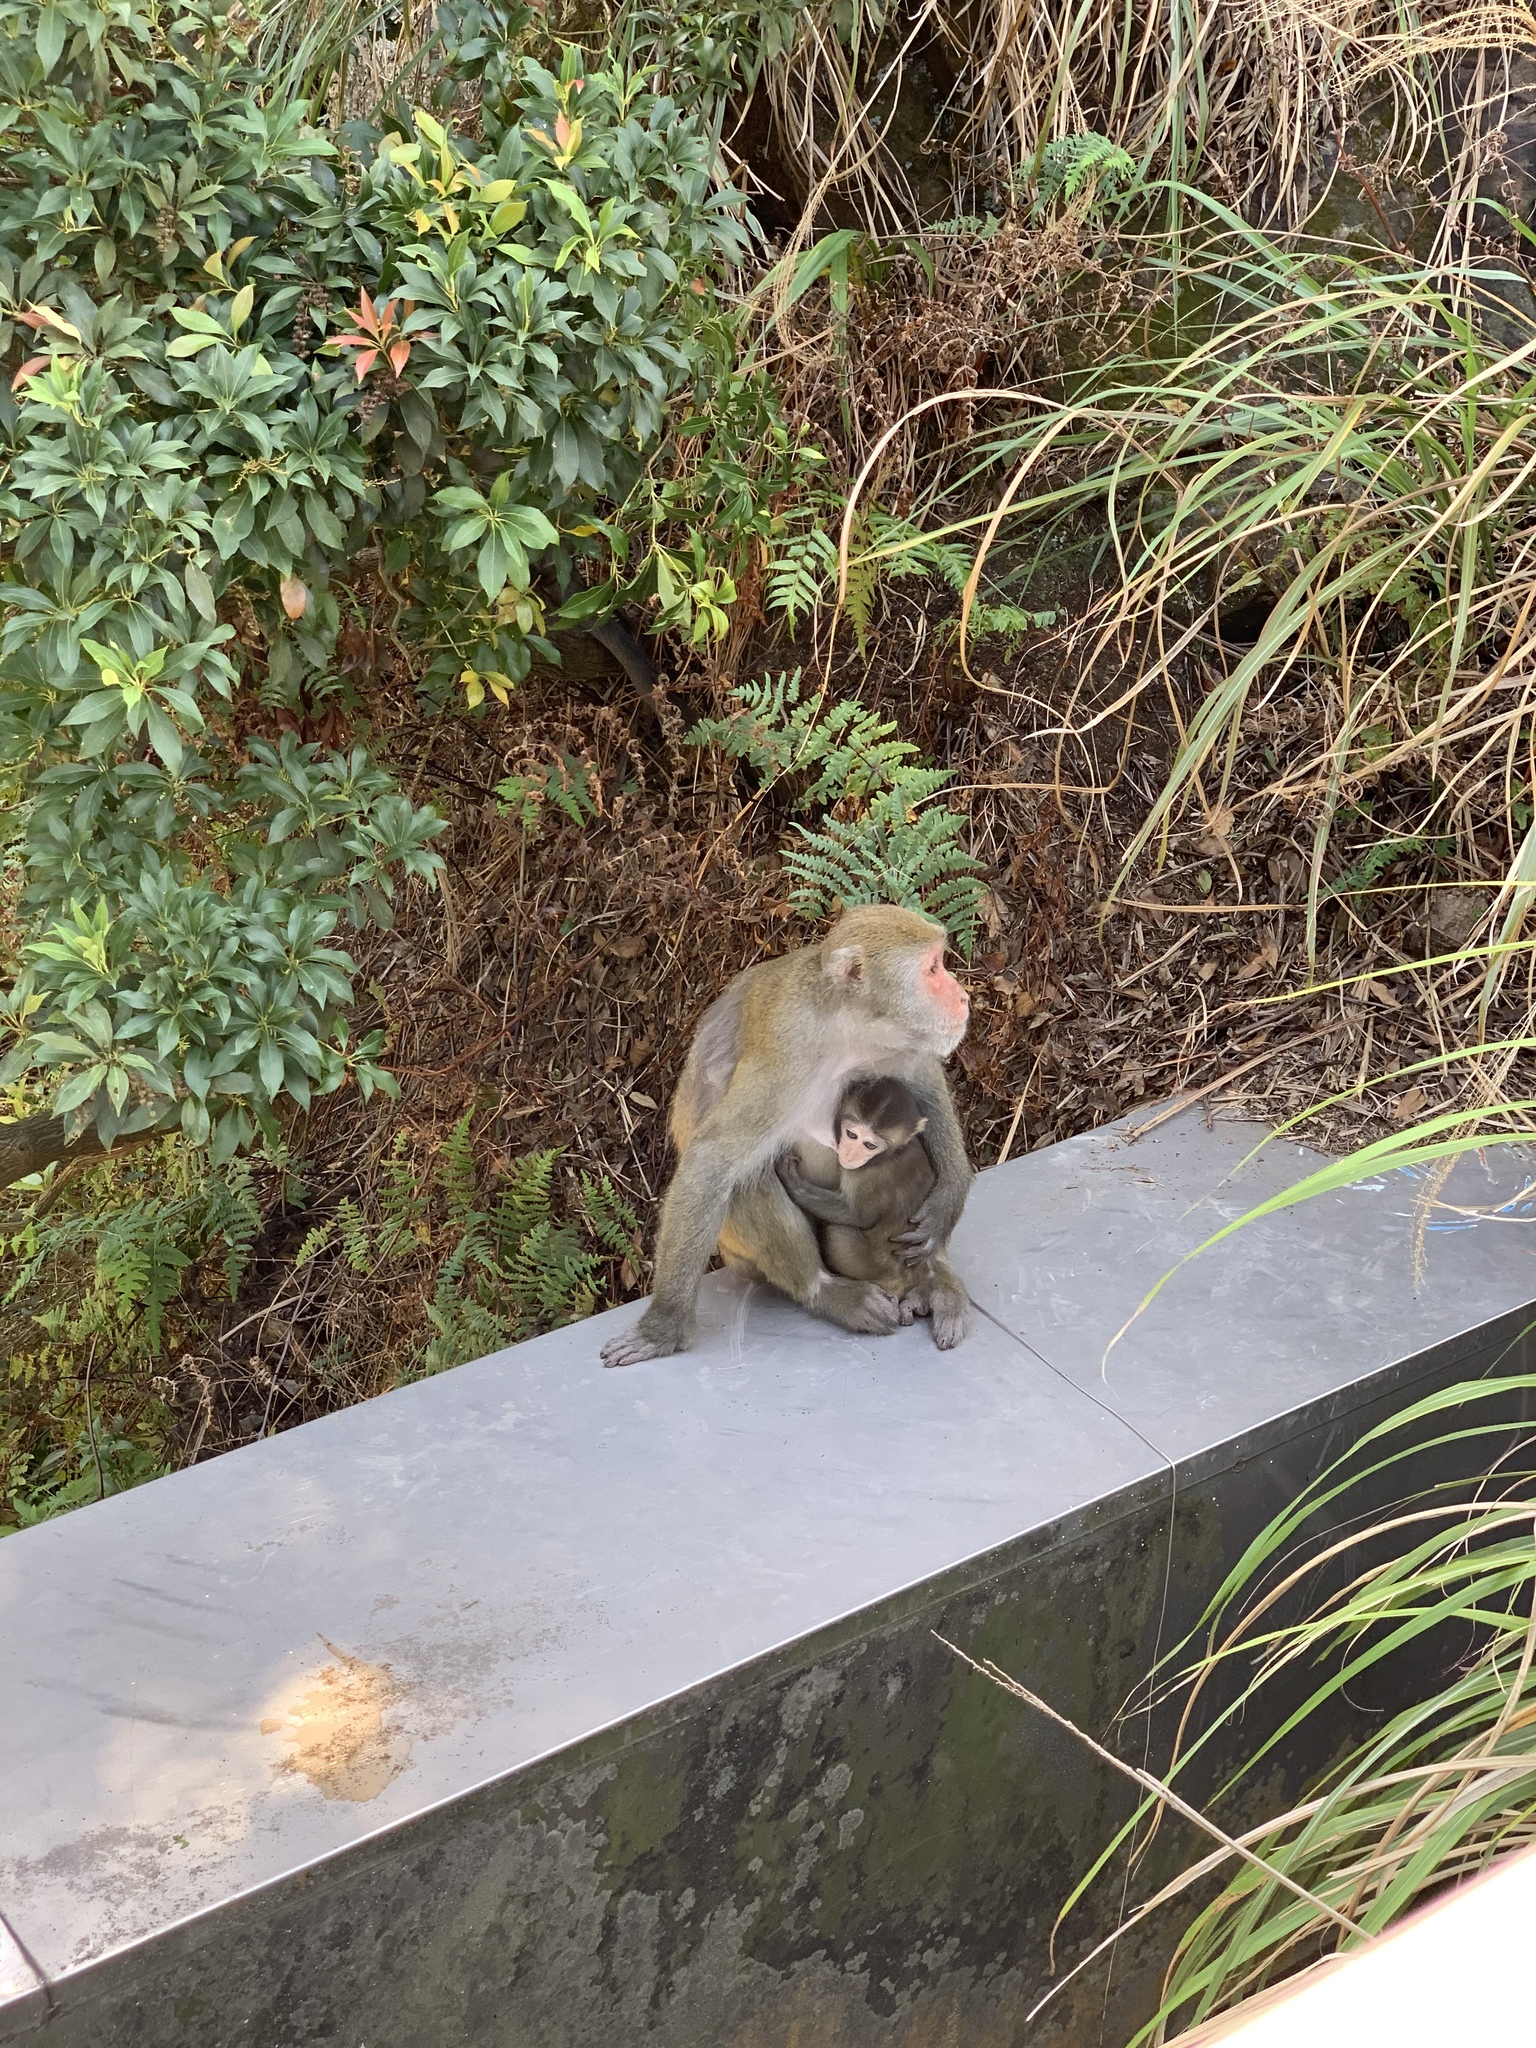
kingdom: Animalia
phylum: Chordata
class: Mammalia
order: Primates
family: Cercopithecidae
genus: Macaca
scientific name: Macaca cyclopis
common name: Formosan rock macaque
